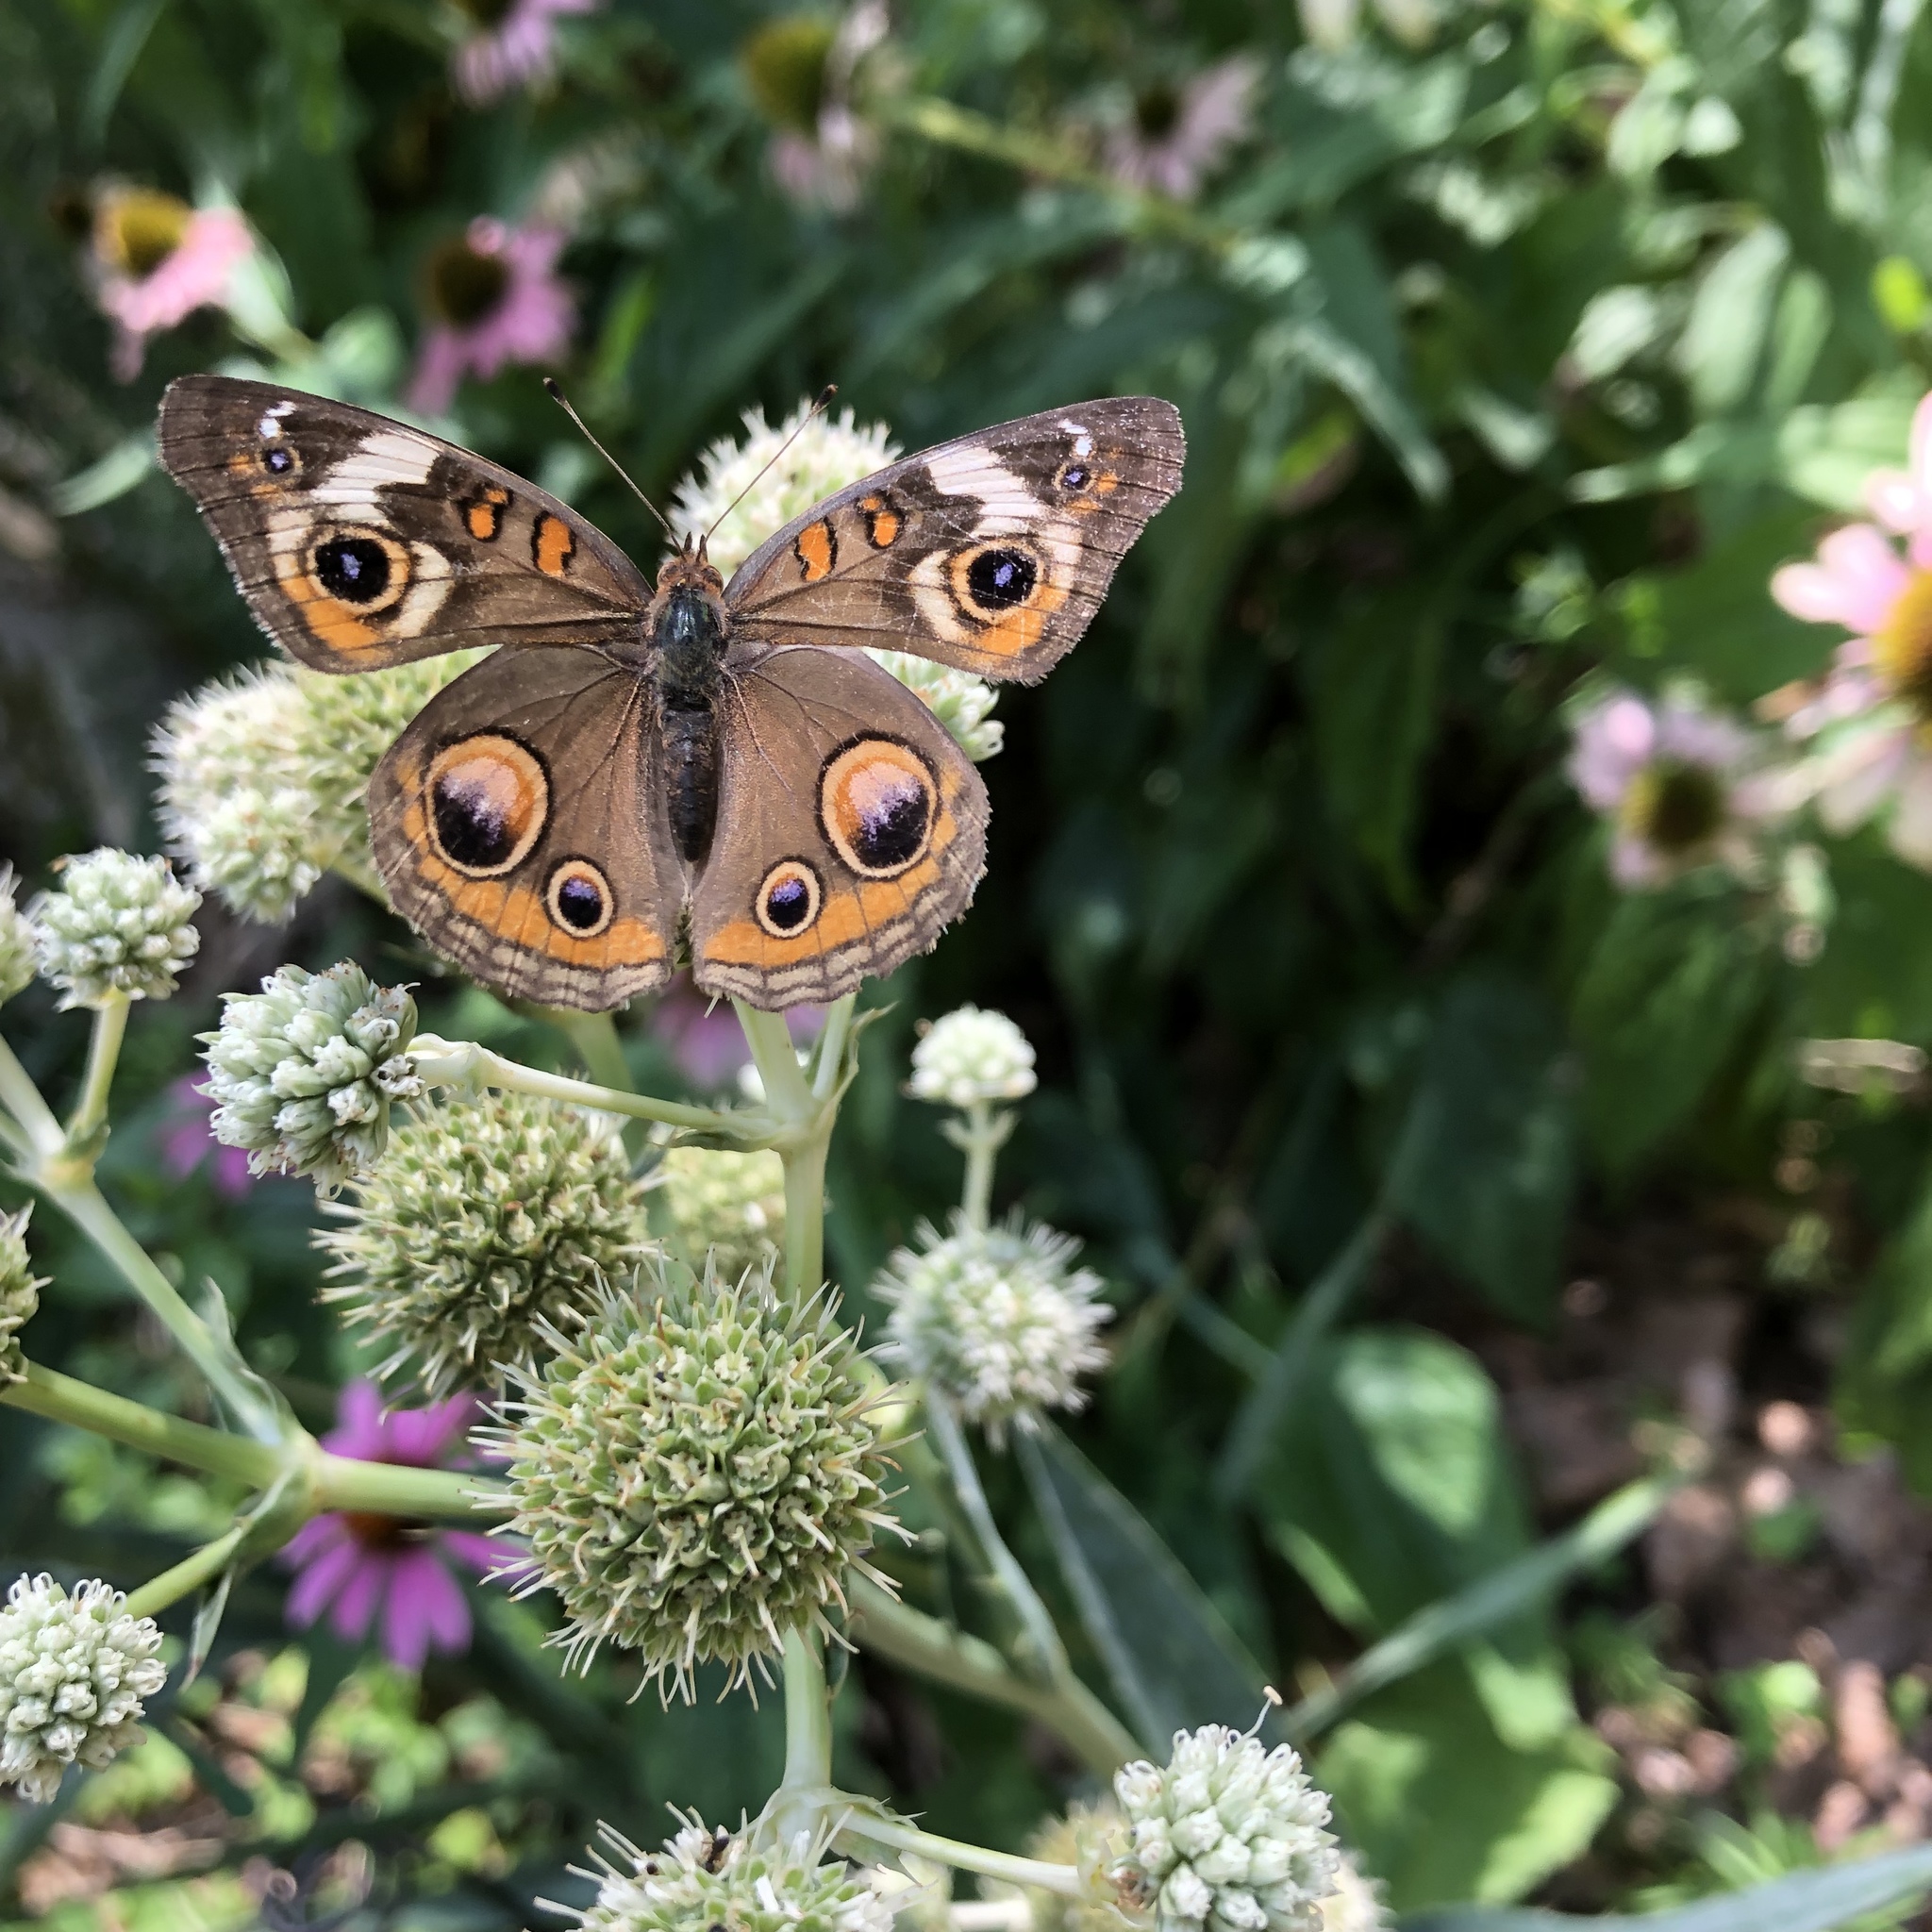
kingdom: Animalia
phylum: Arthropoda
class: Insecta
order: Lepidoptera
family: Nymphalidae
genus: Junonia
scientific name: Junonia coenia
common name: Common buckeye
